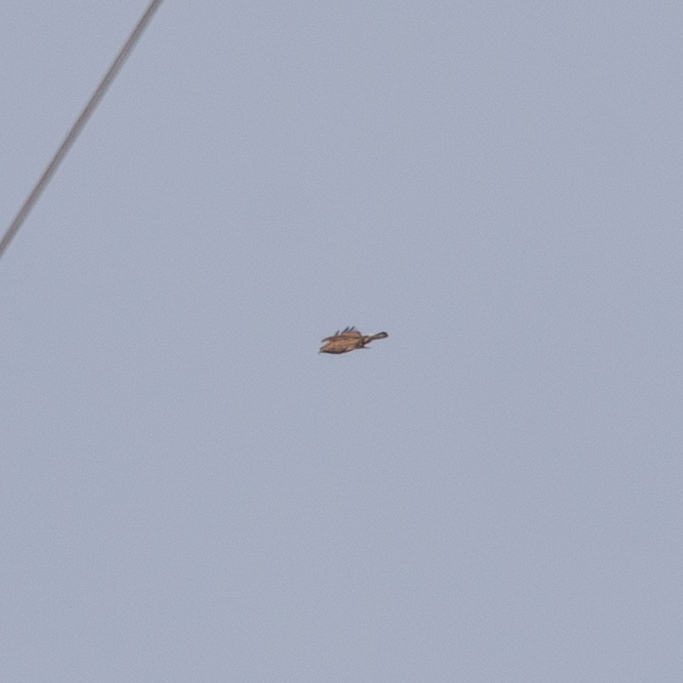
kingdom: Animalia
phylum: Chordata
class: Aves
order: Accipitriformes
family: Accipitridae
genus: Buteo
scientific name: Buteo buteo
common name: Common buzzard
